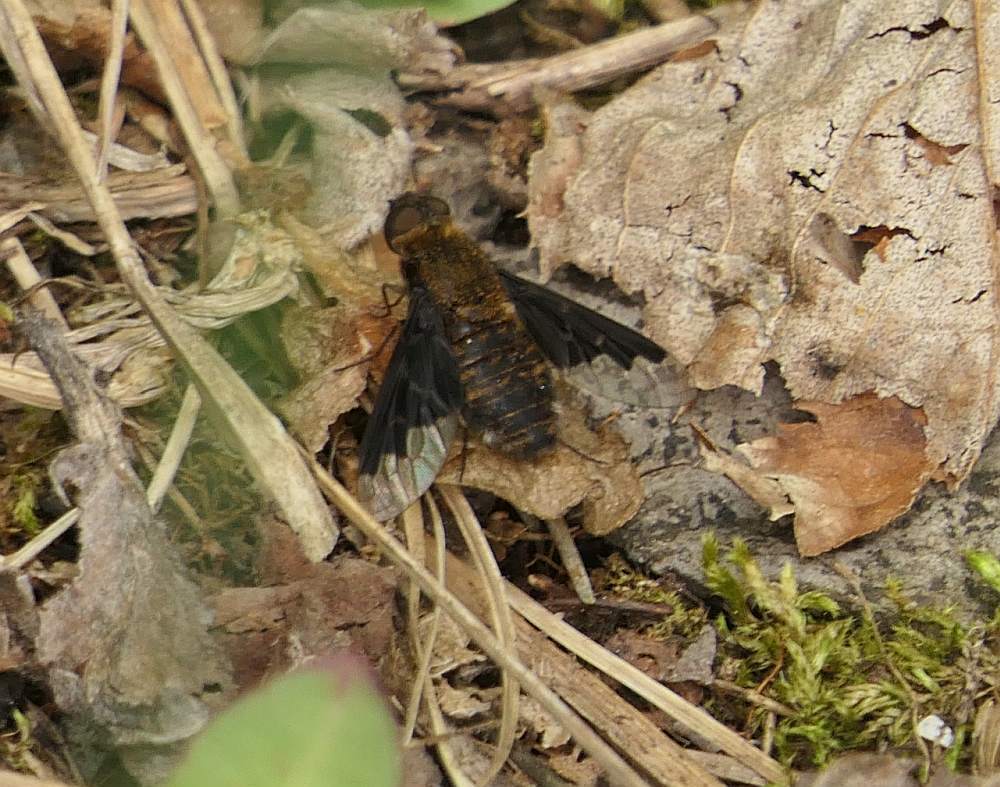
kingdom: Animalia
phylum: Arthropoda
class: Insecta
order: Diptera
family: Bombyliidae
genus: Hemipenthes
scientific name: Hemipenthes webberi
